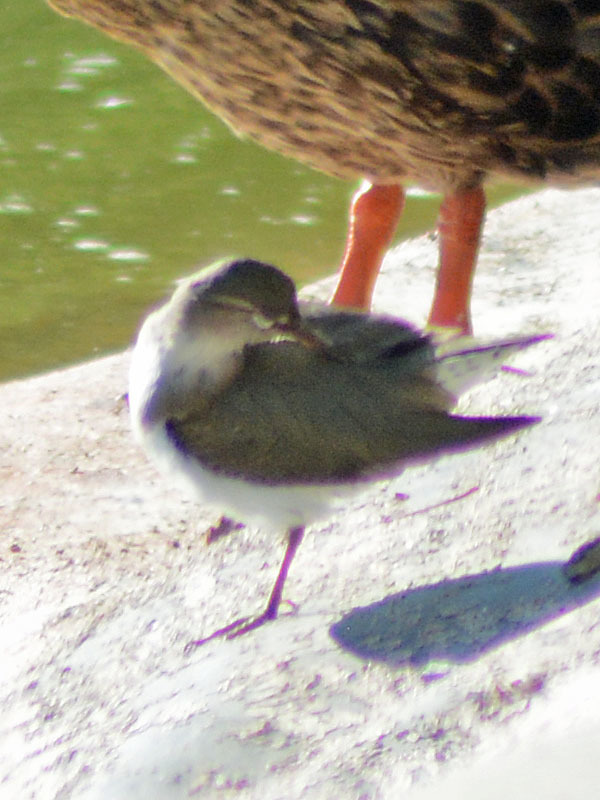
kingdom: Animalia
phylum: Chordata
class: Aves
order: Charadriiformes
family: Scolopacidae
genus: Actitis
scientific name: Actitis macularius
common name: Spotted sandpiper
